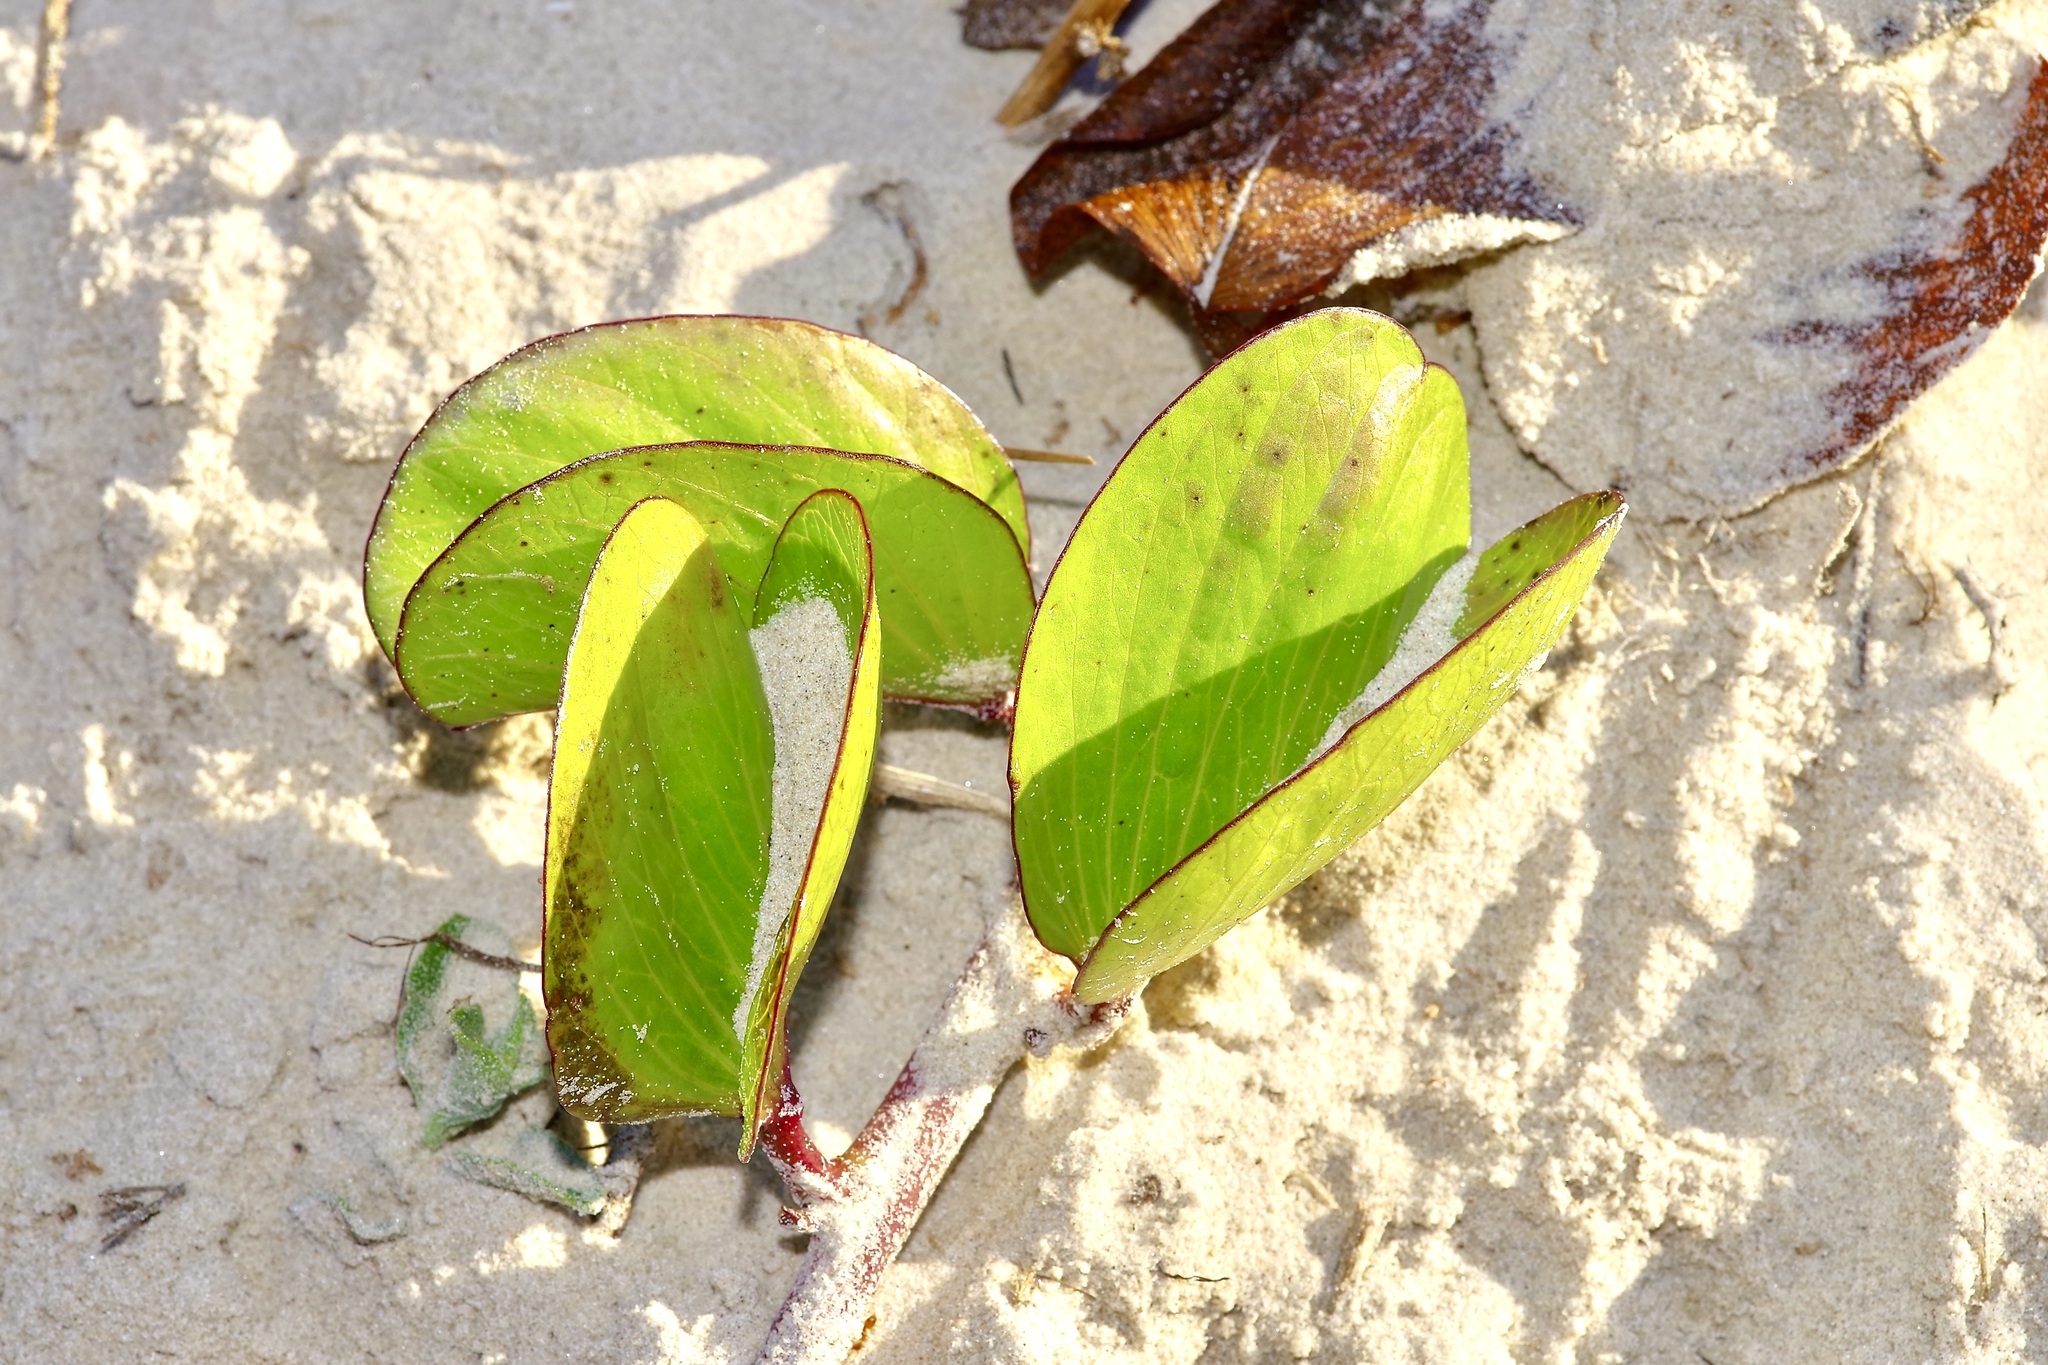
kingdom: Plantae
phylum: Tracheophyta
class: Magnoliopsida
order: Solanales
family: Convolvulaceae
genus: Ipomoea
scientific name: Ipomoea pes-caprae
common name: Beach morning glory
